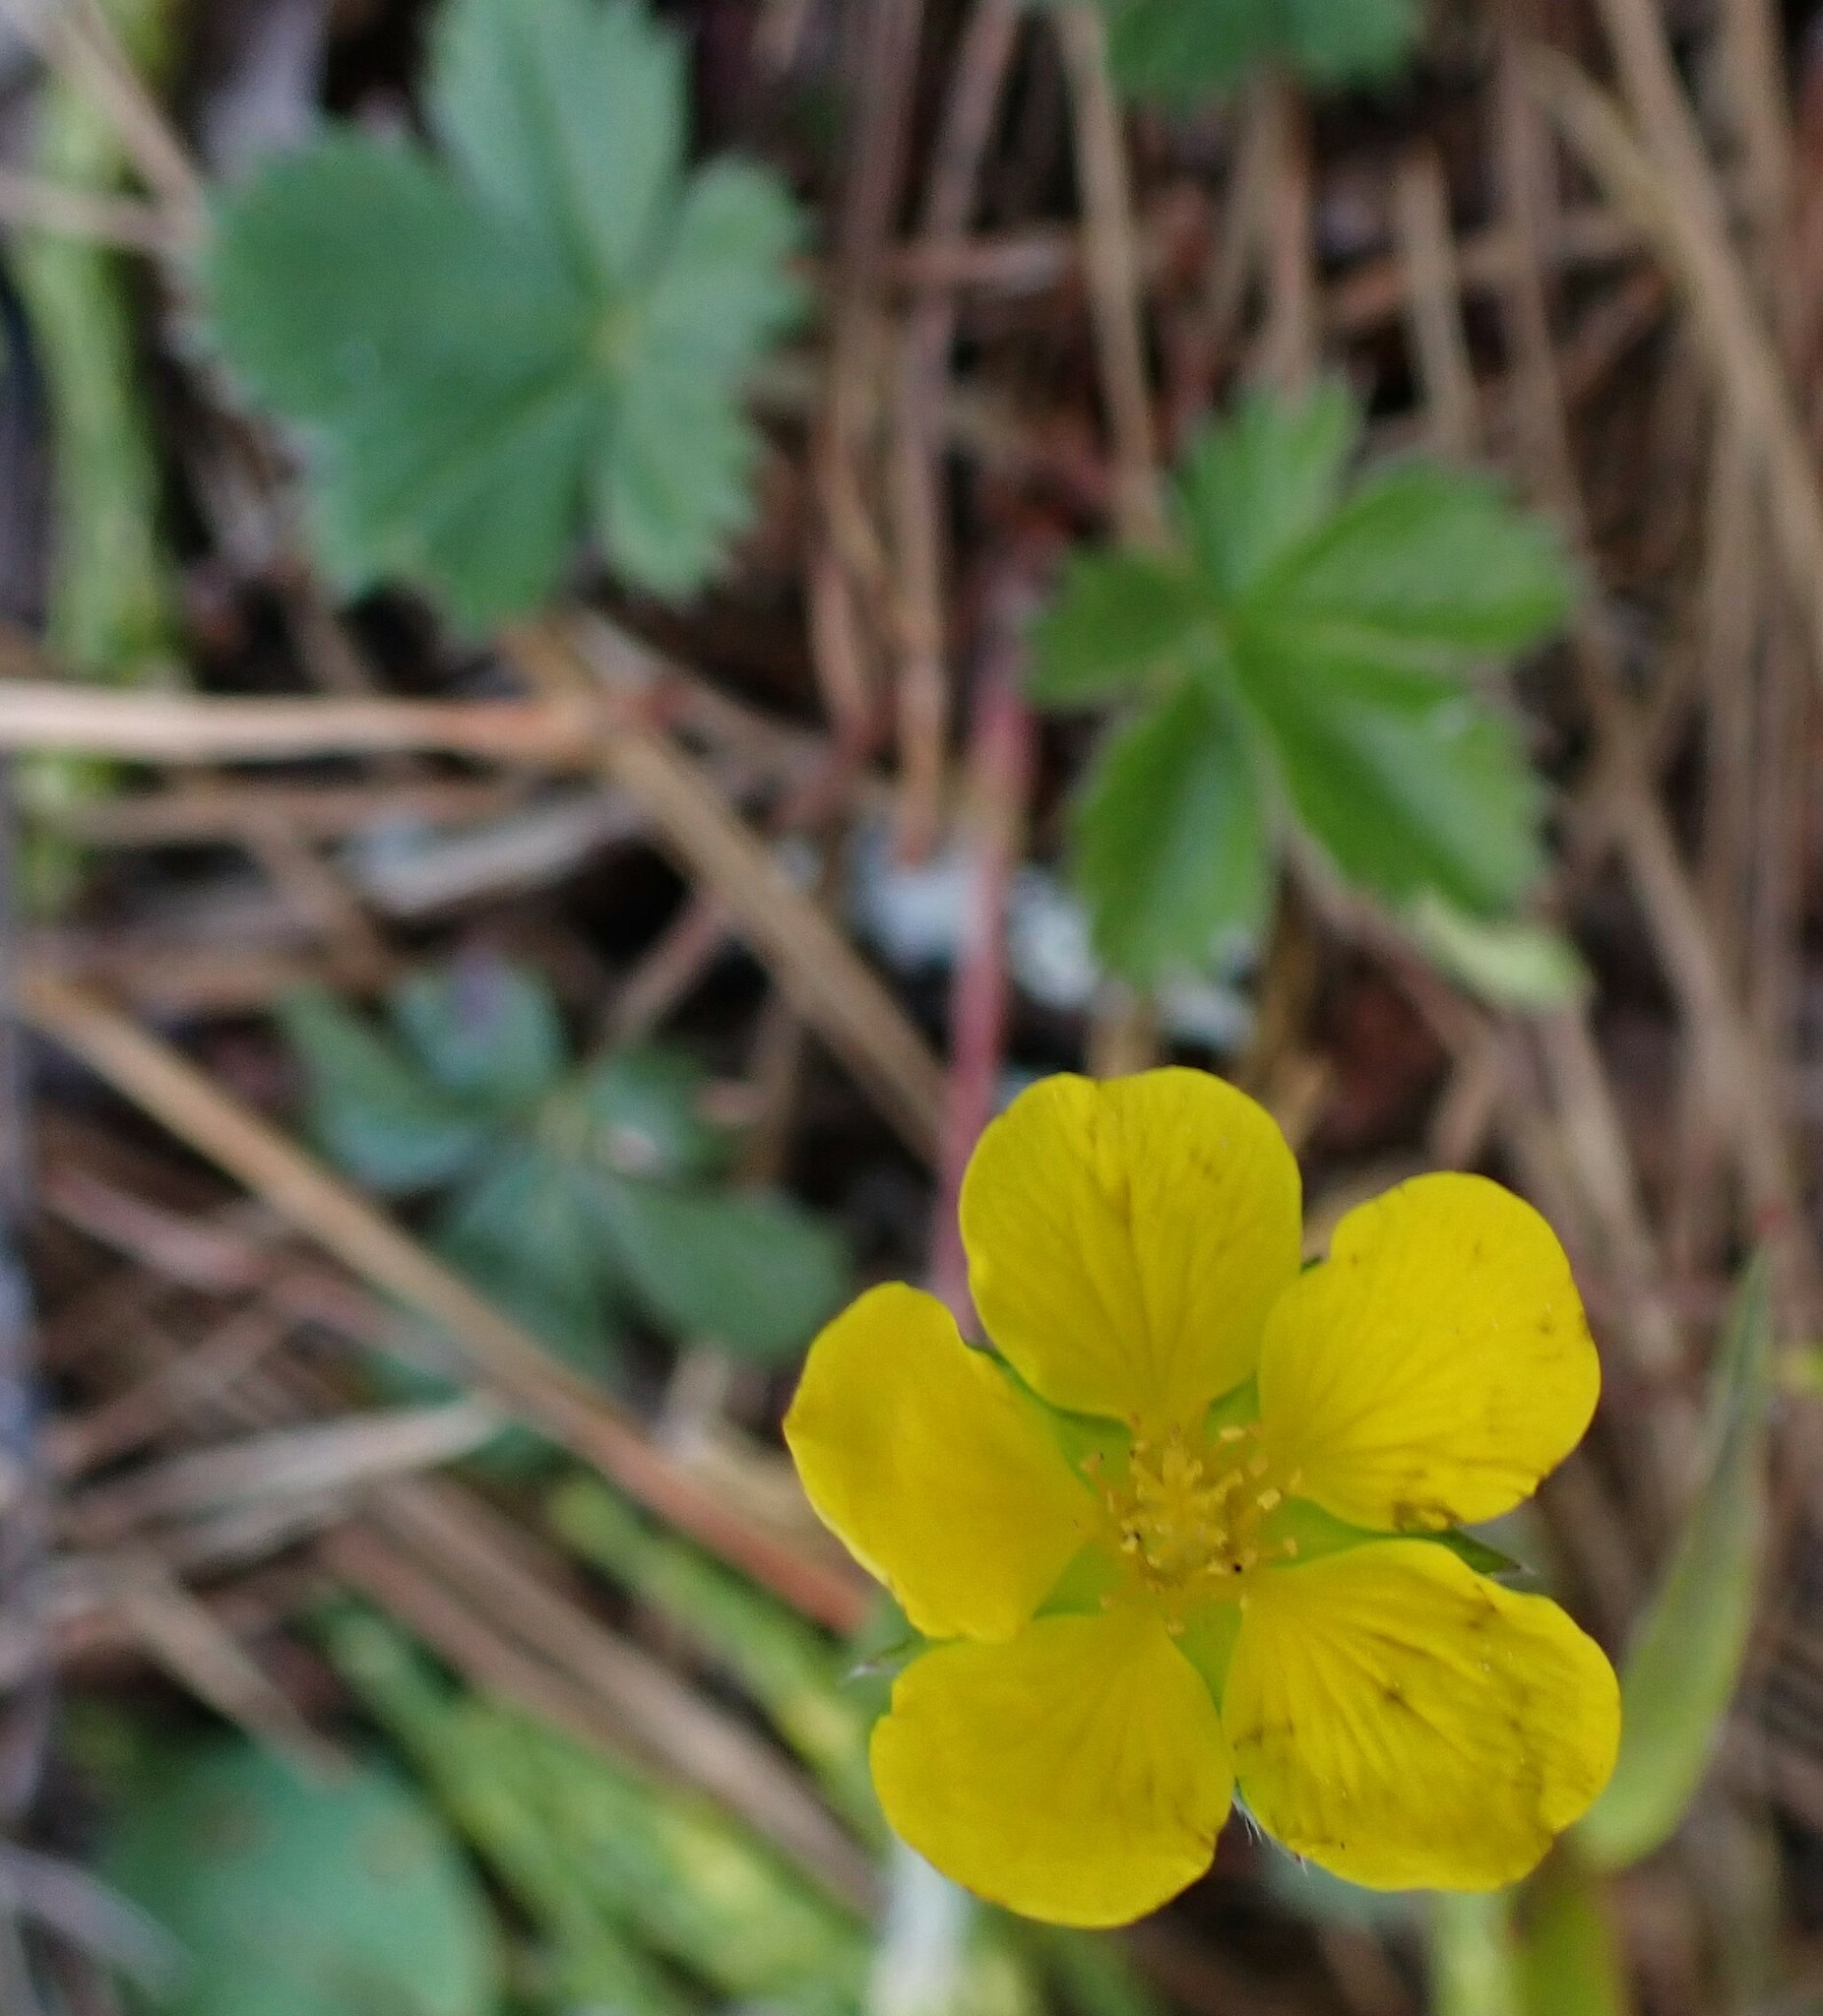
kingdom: Plantae
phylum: Tracheophyta
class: Magnoliopsida
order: Rosales
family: Rosaceae
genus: Potentilla
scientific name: Potentilla canadensis
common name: Canada cinquefoil
